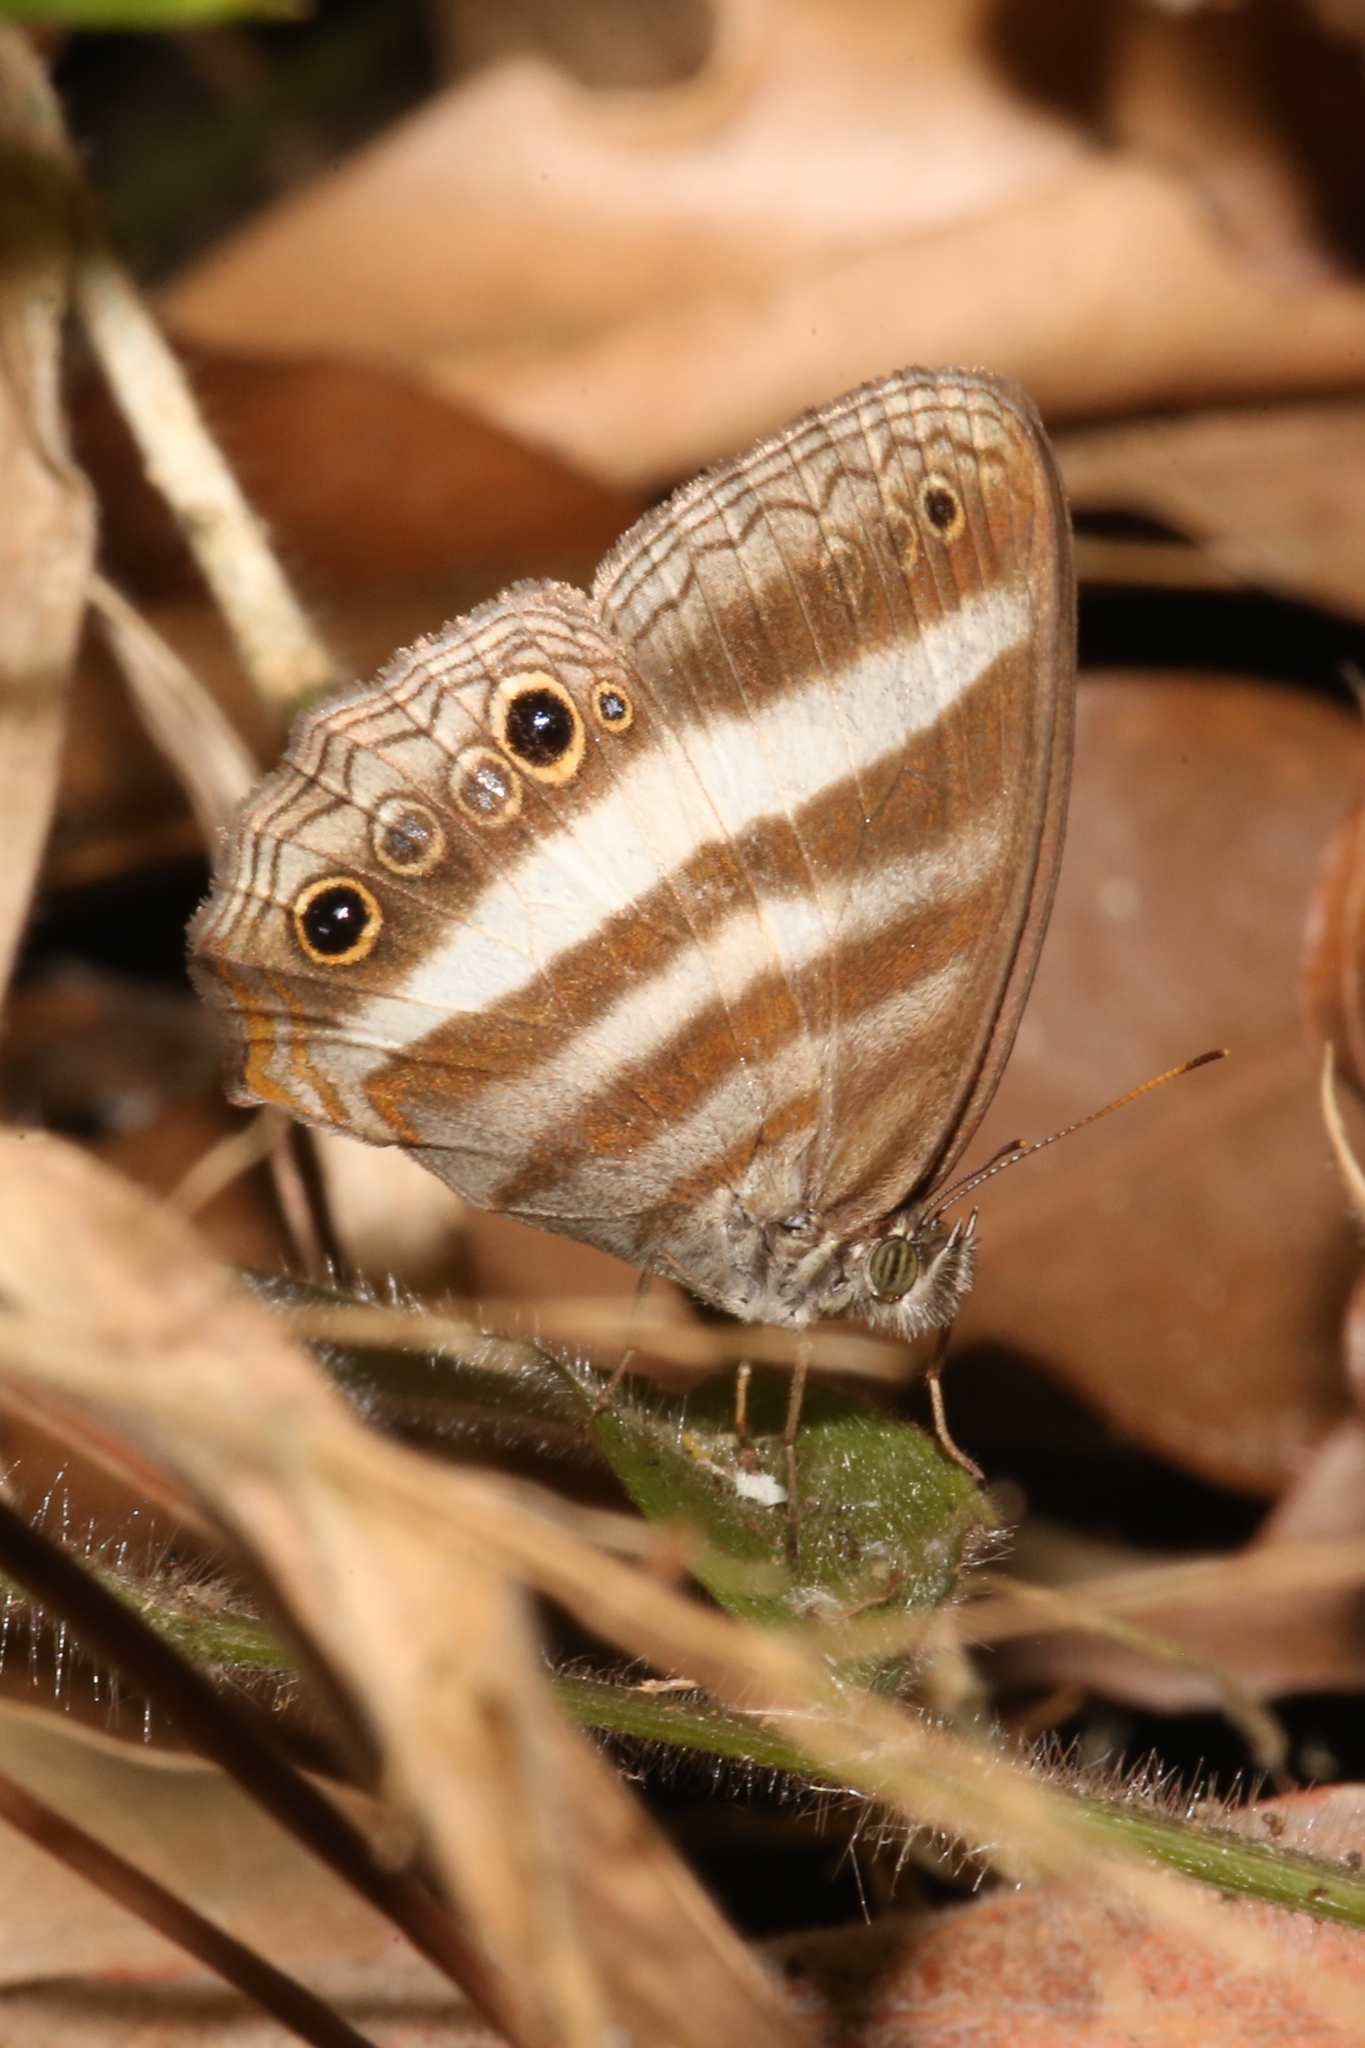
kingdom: Animalia
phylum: Arthropoda
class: Insecta
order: Lepidoptera
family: Nymphalidae
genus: Pareuptychia
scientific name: Pareuptychia hesione
